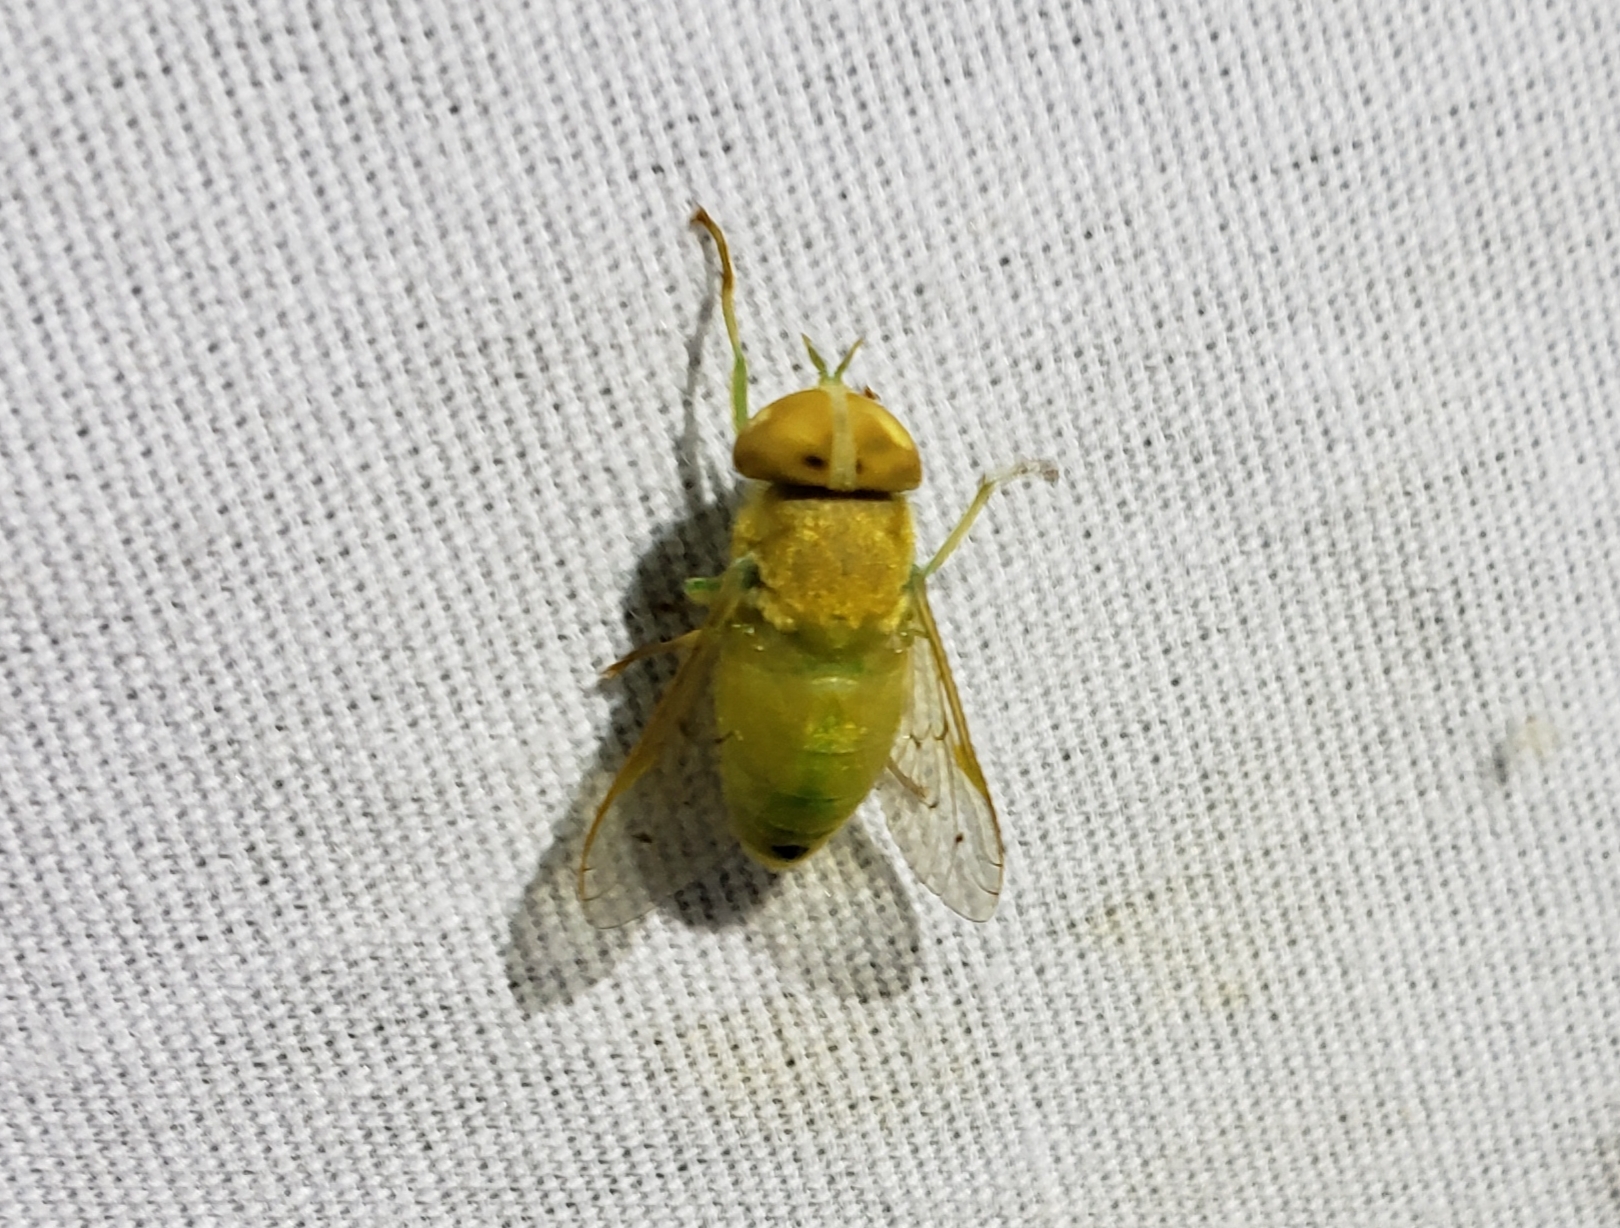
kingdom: Animalia
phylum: Arthropoda
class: Insecta
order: Diptera
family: Tabanidae
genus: Chlorotabanus
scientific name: Chlorotabanus crepuscularis
